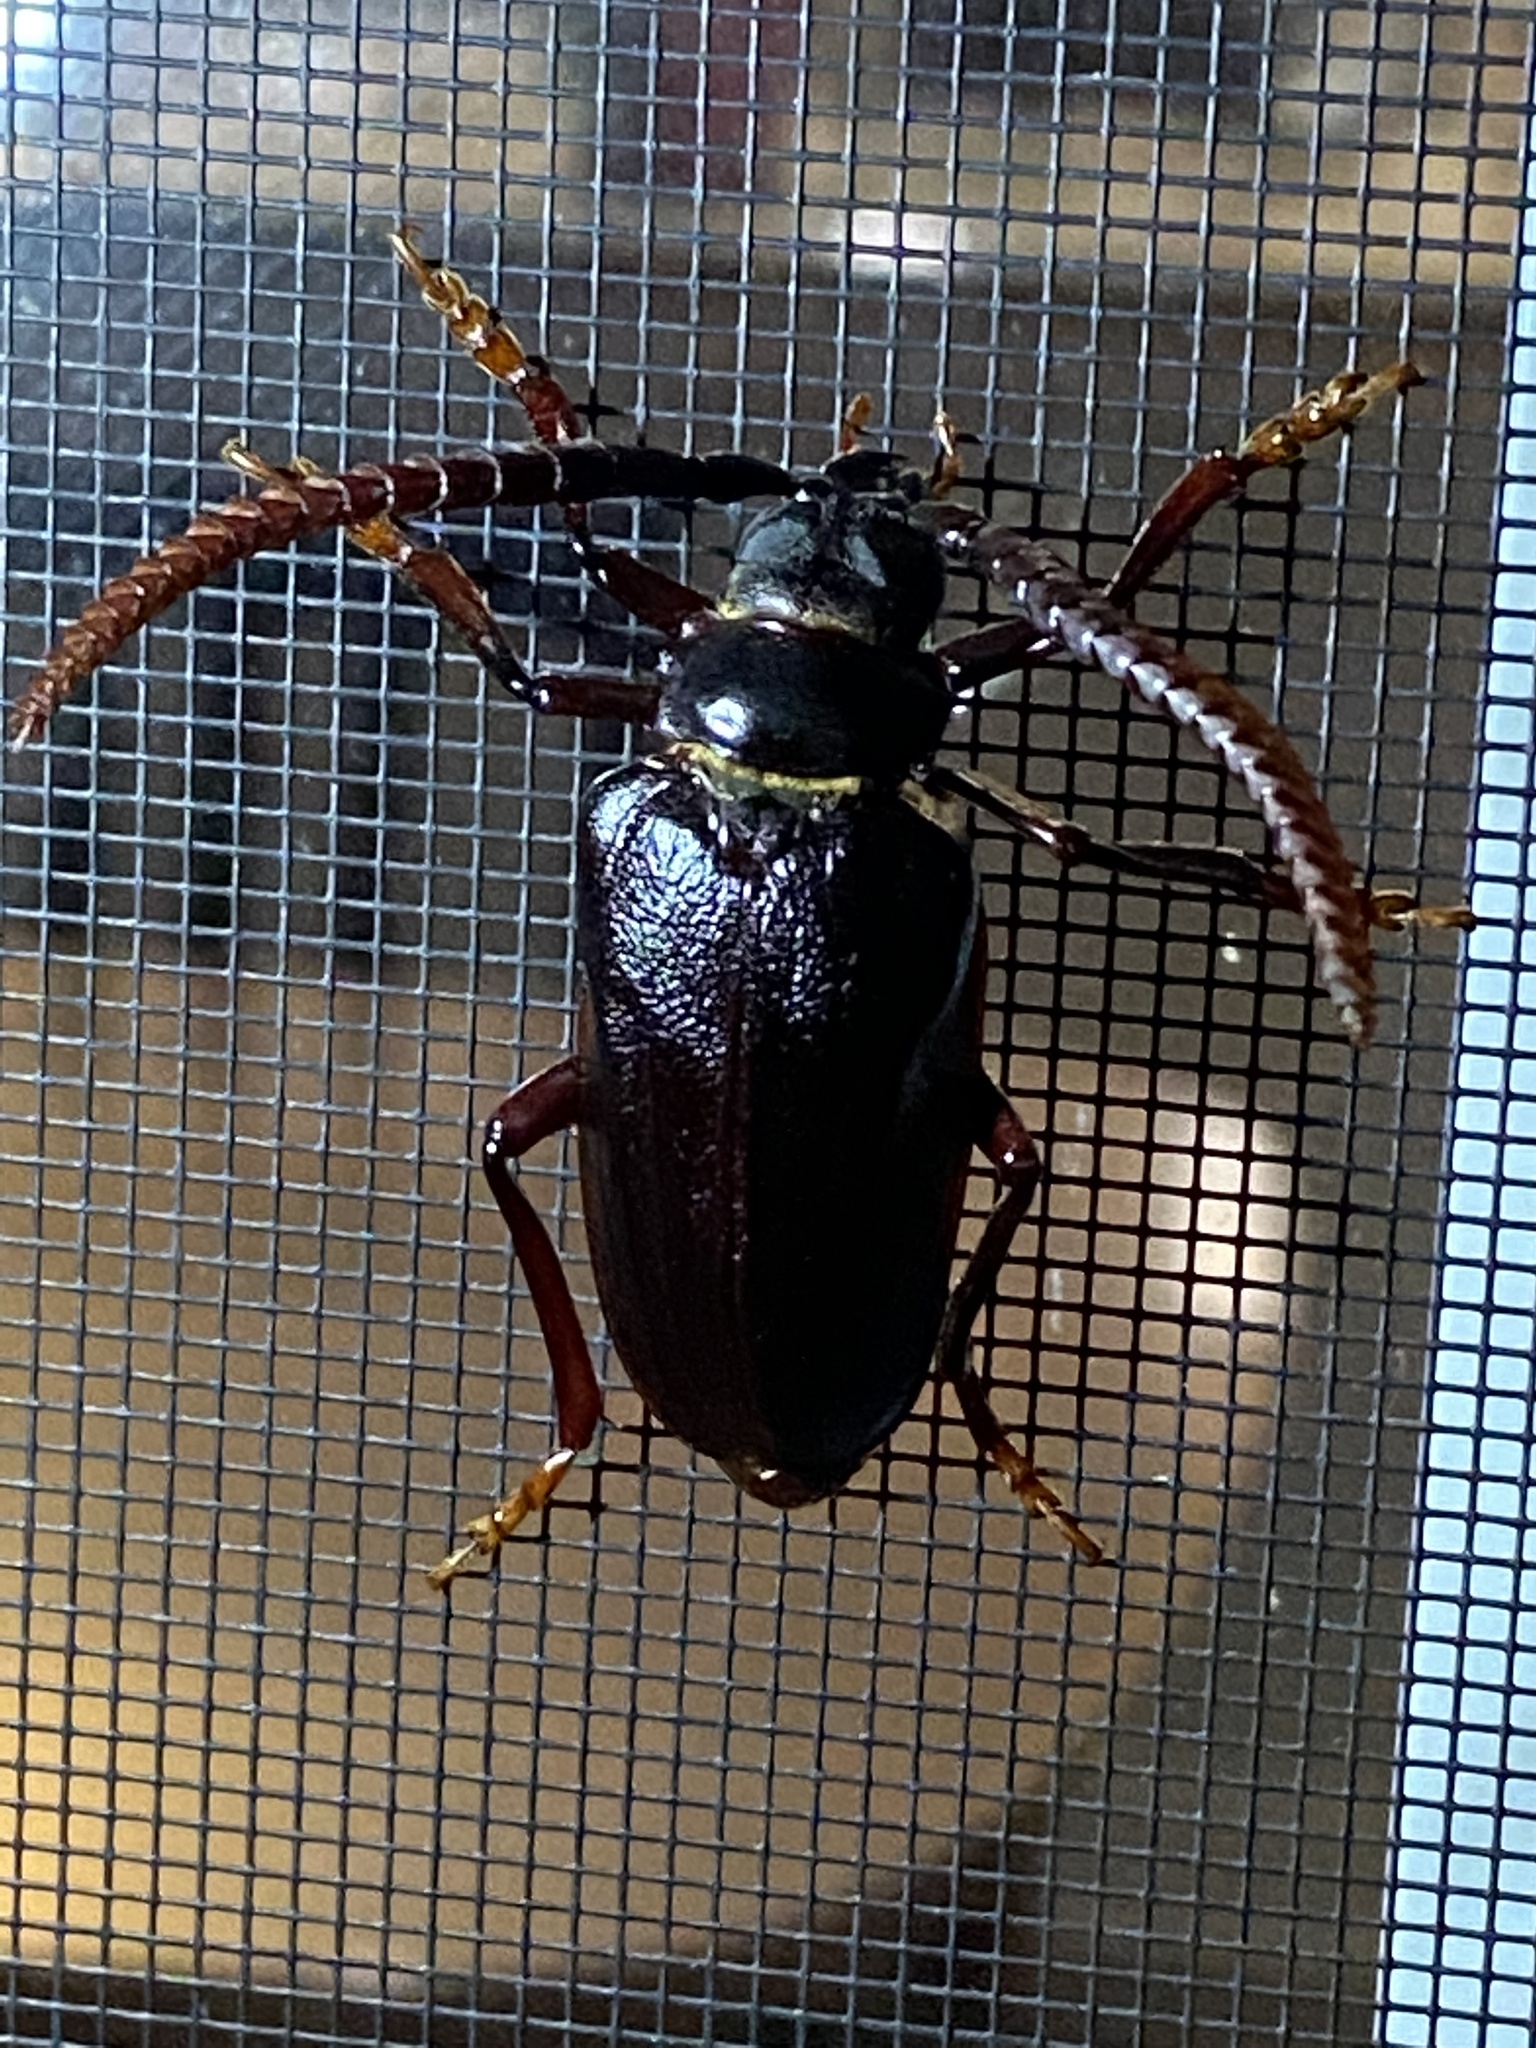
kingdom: Animalia
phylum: Arthropoda
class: Insecta
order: Coleoptera
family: Cerambycidae
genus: Prionus
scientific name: Prionus imbricornis
